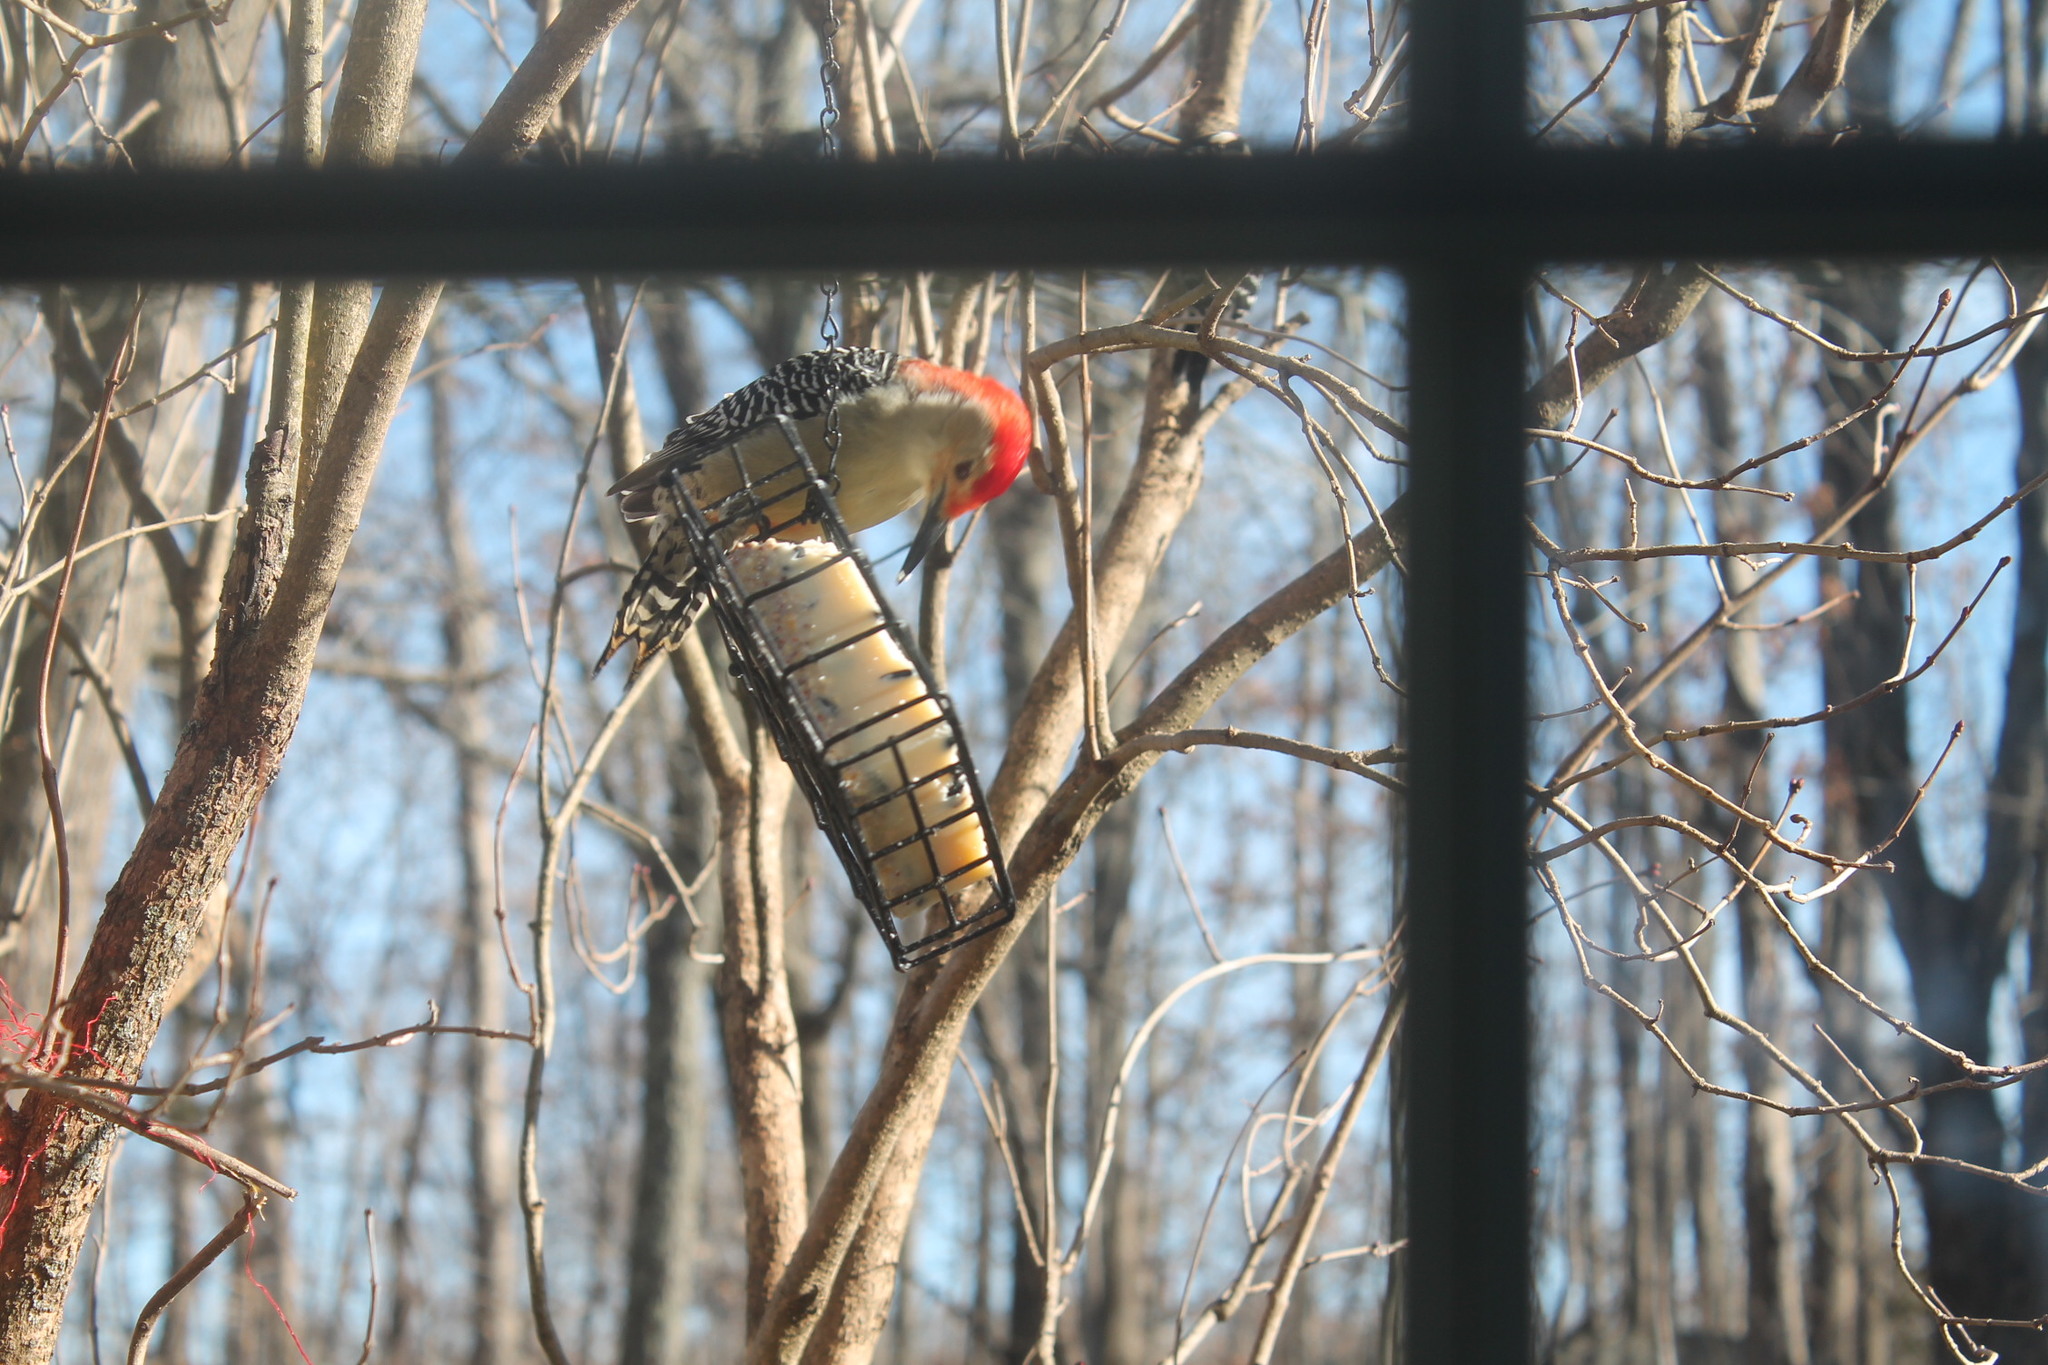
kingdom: Animalia
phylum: Chordata
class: Aves
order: Piciformes
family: Picidae
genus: Melanerpes
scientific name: Melanerpes carolinus
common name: Red-bellied woodpecker
